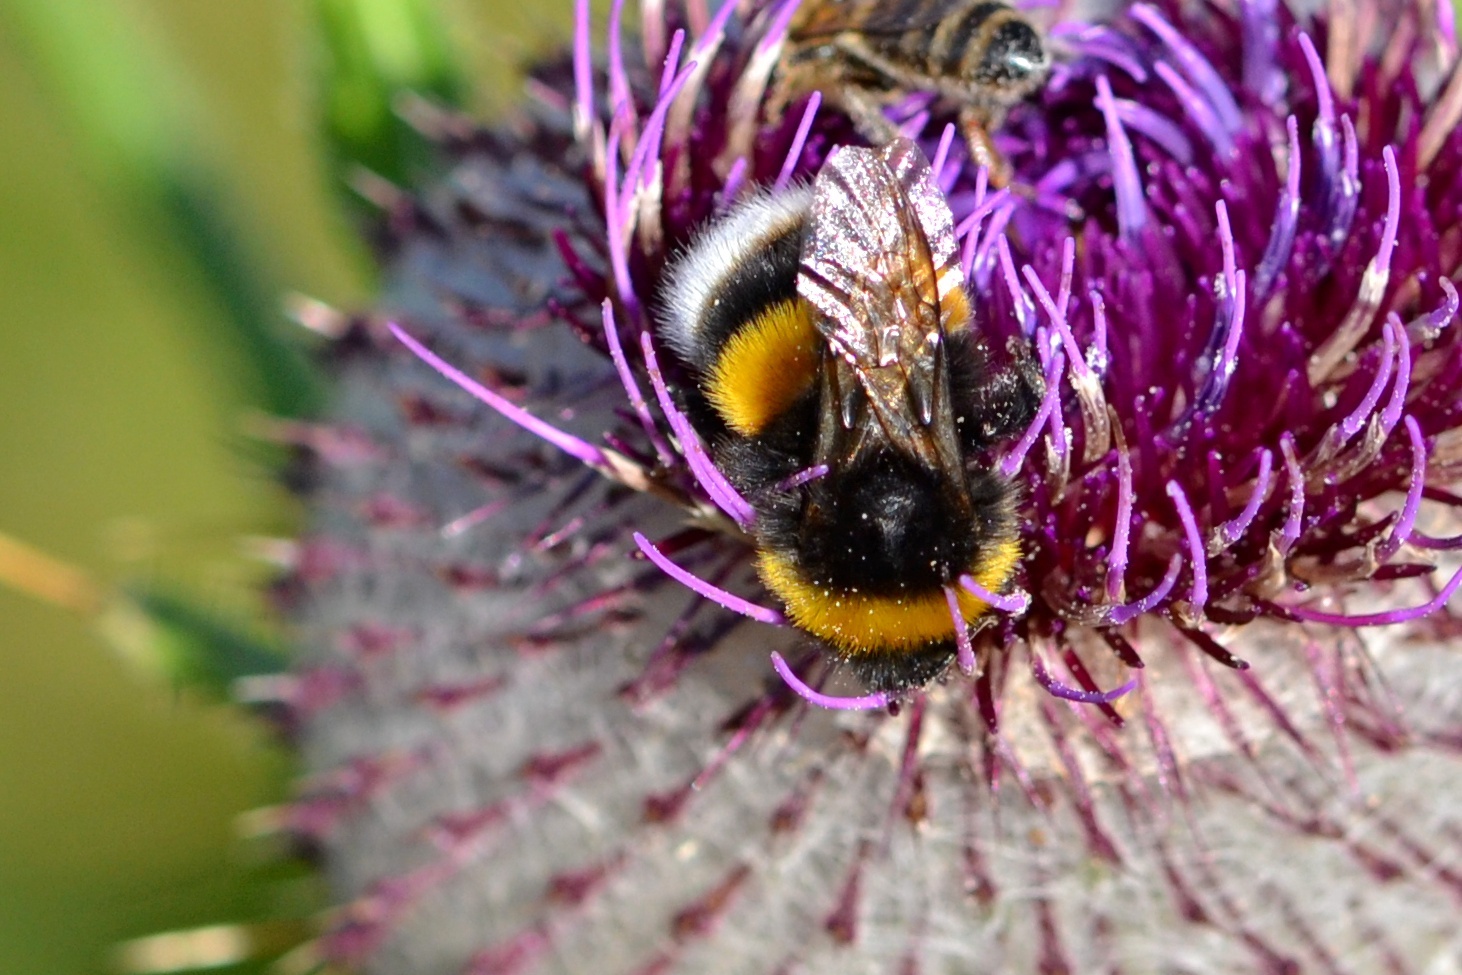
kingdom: Animalia
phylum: Arthropoda
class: Insecta
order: Hymenoptera
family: Apidae
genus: Bombus
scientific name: Bombus terrestris
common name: Buff-tailed bumblebee
